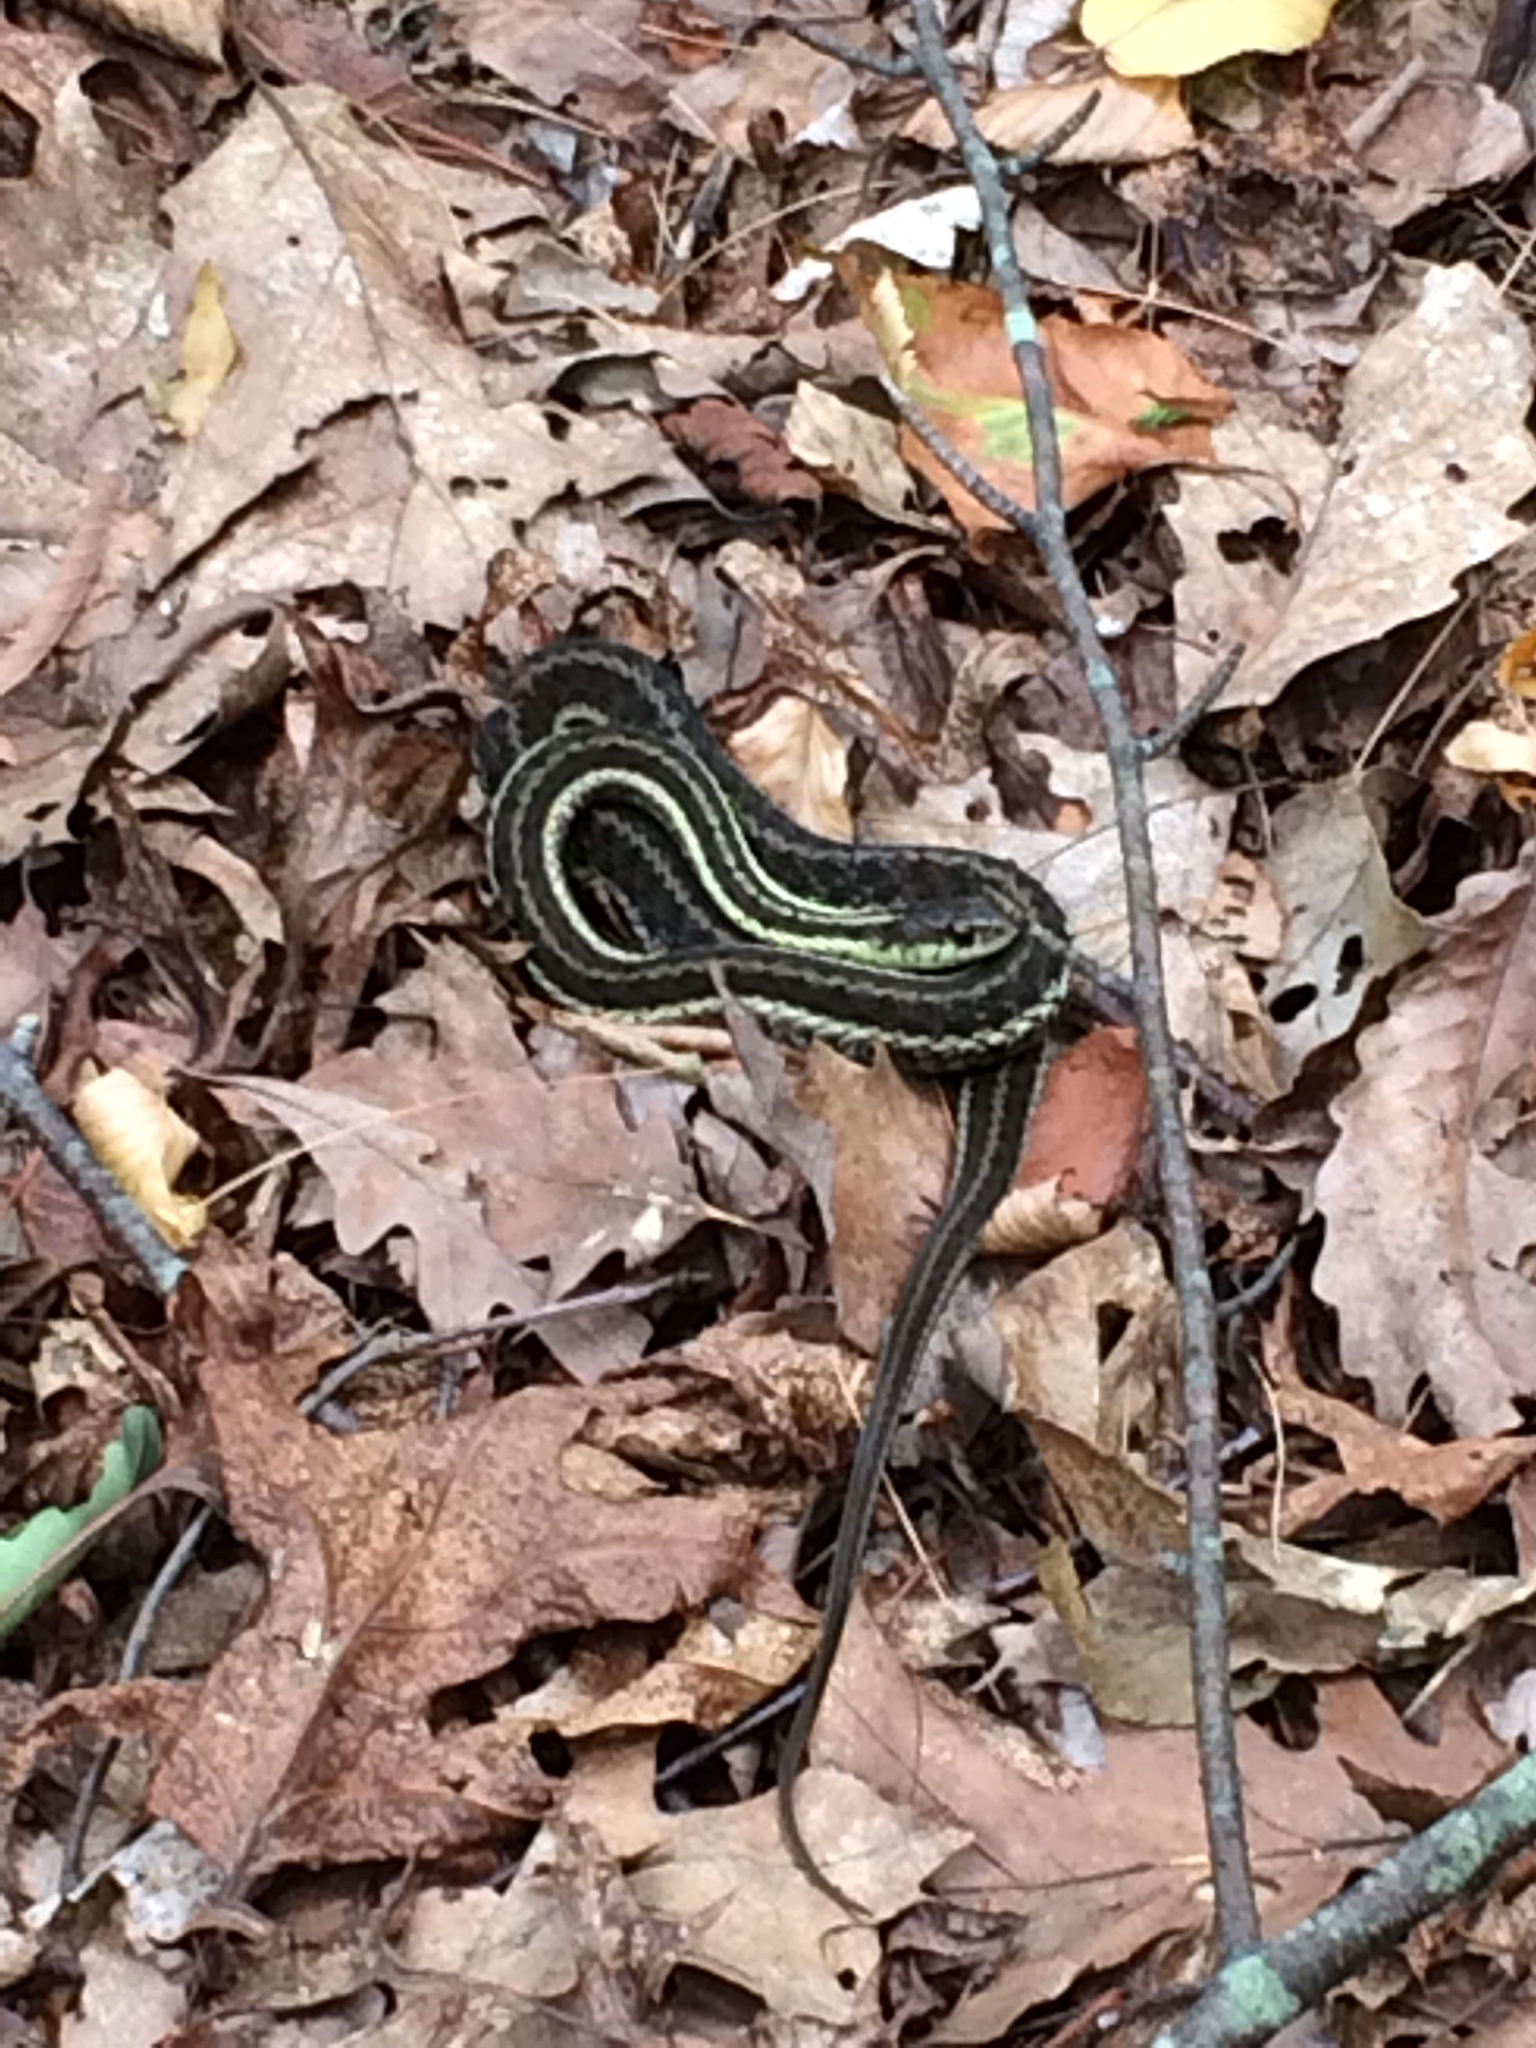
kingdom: Animalia
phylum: Chordata
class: Squamata
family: Colubridae
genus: Thamnophis
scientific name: Thamnophis sirtalis
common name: Common garter snake
